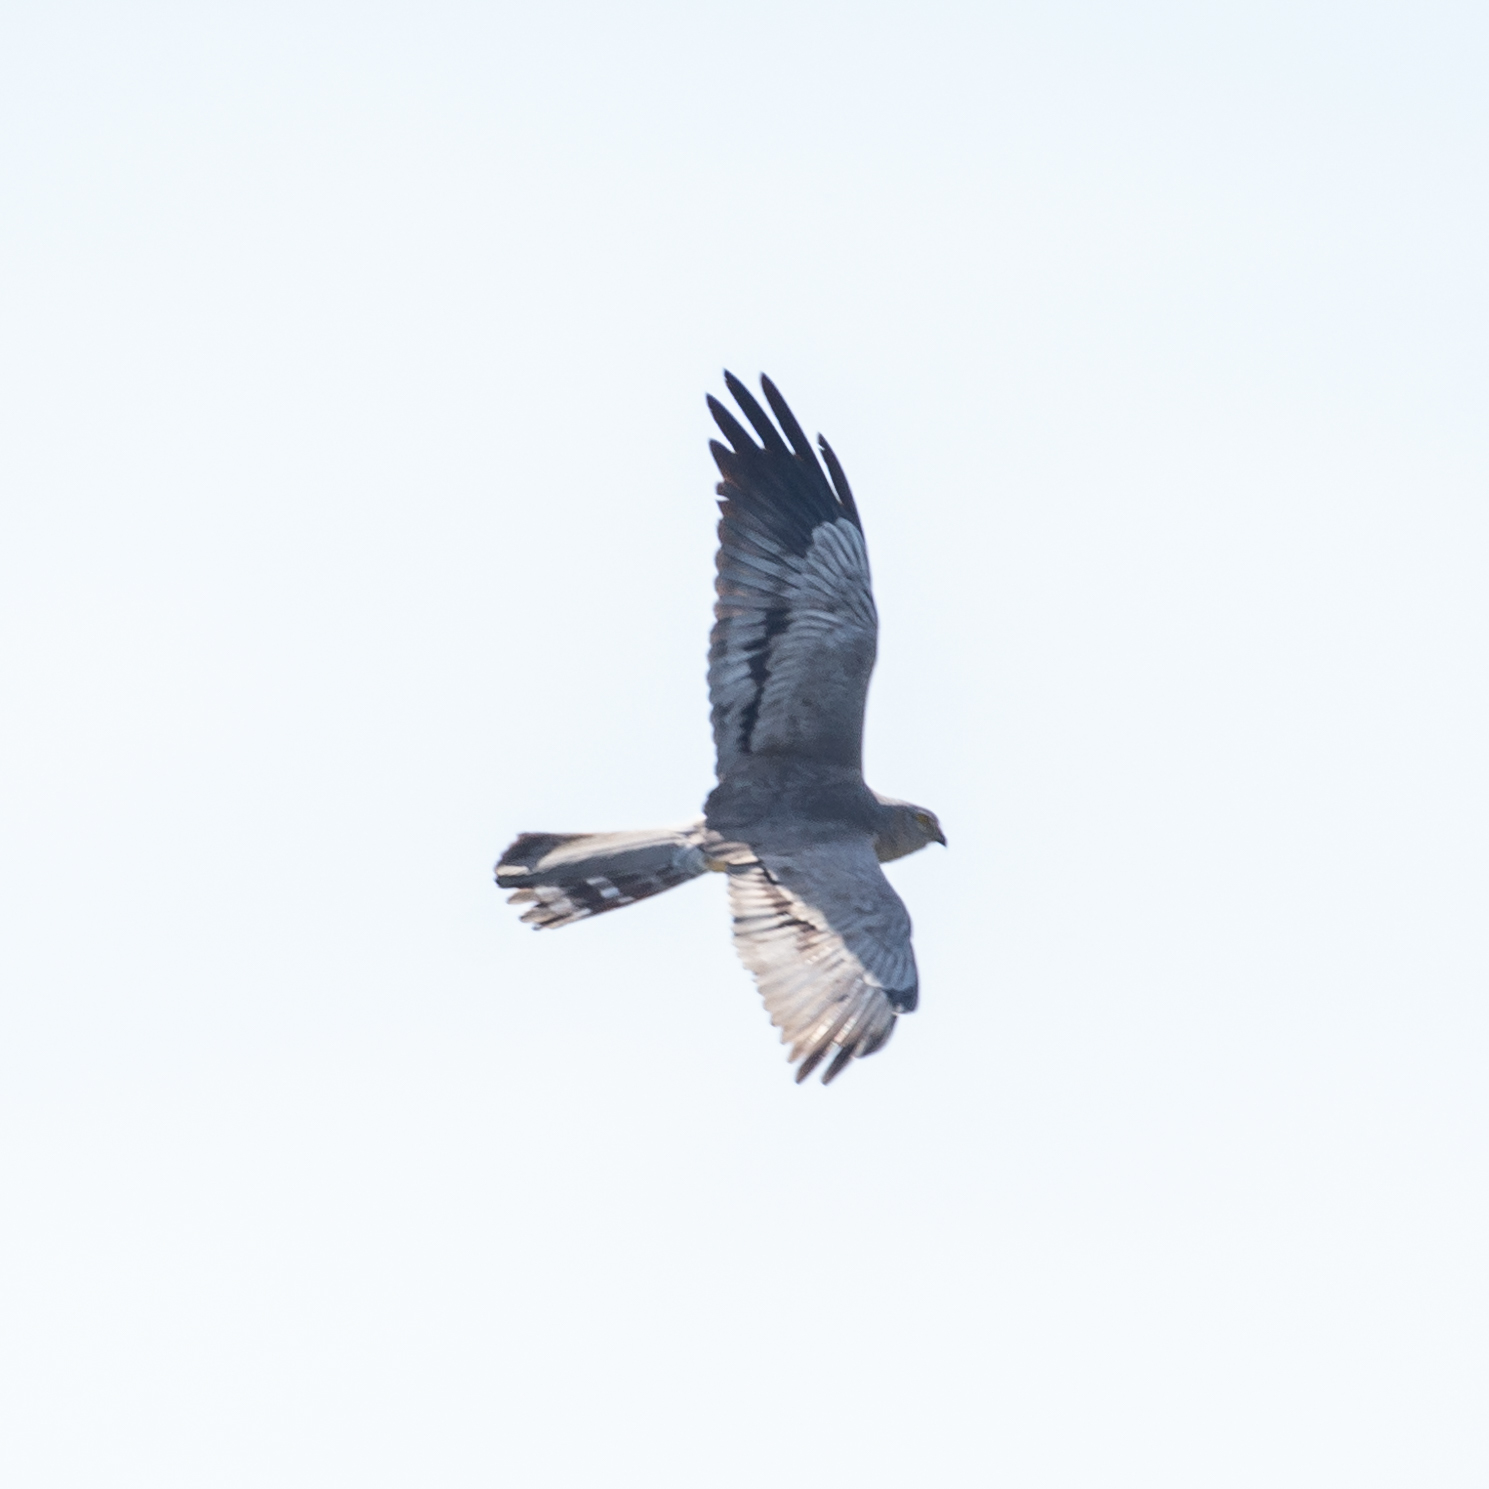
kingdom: Animalia
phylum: Chordata
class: Aves
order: Accipitriformes
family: Accipitridae
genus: Circus
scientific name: Circus pygargus
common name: Montagu's harrier
